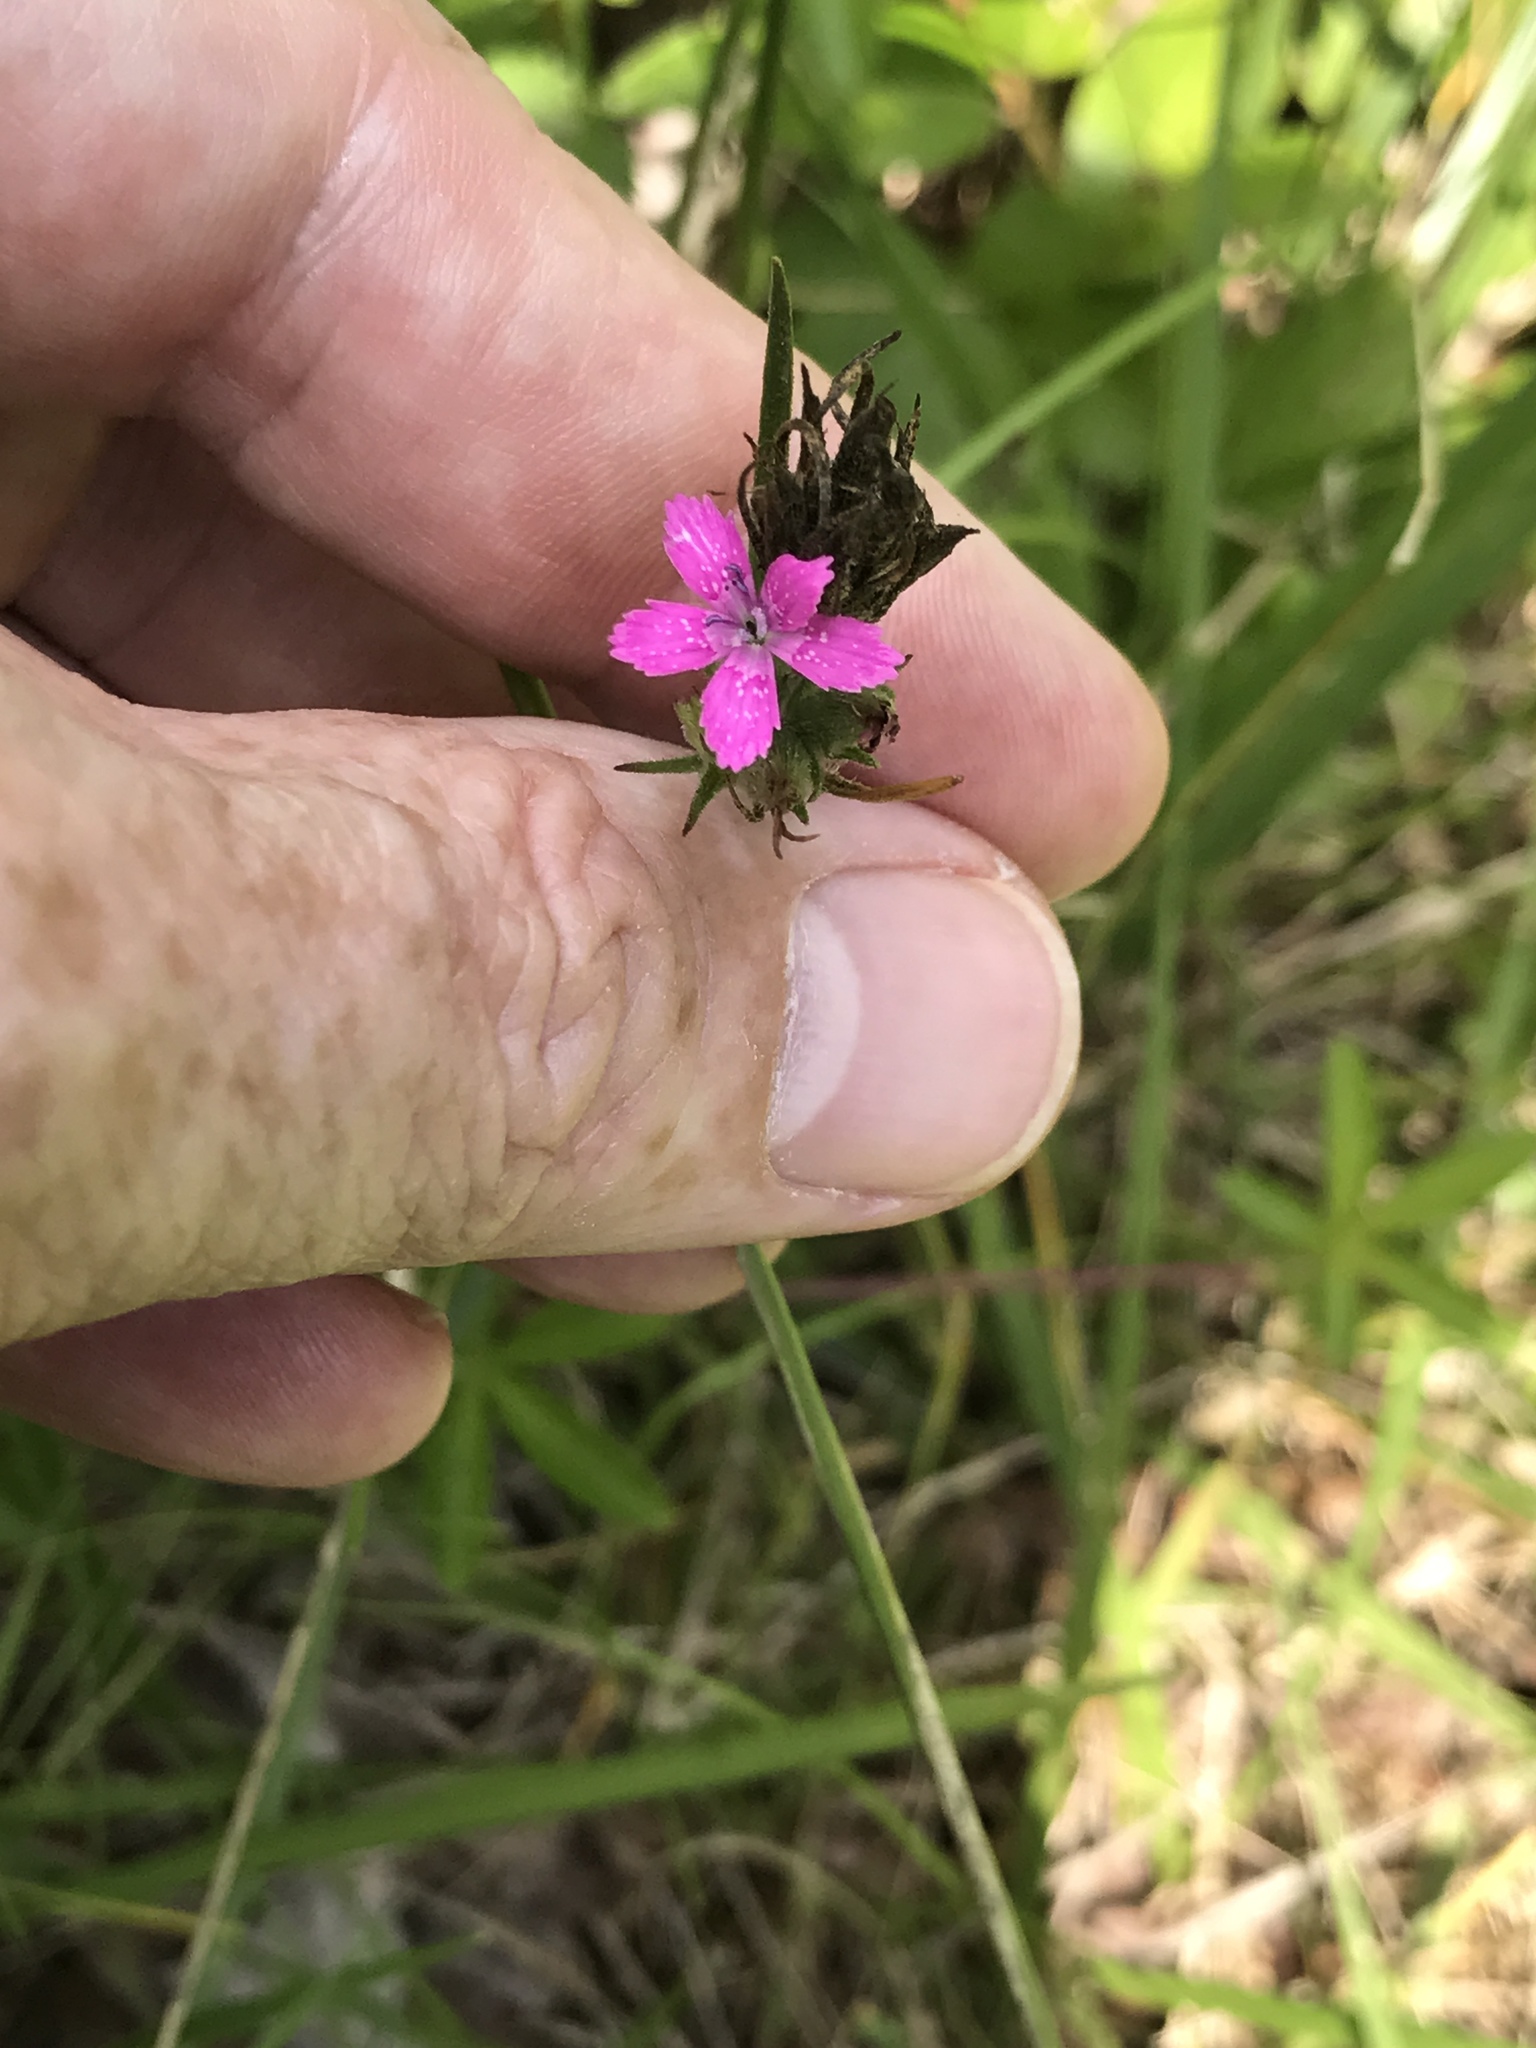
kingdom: Plantae
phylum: Tracheophyta
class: Magnoliopsida
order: Caryophyllales
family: Caryophyllaceae
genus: Dianthus
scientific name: Dianthus armeria
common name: Deptford pink
